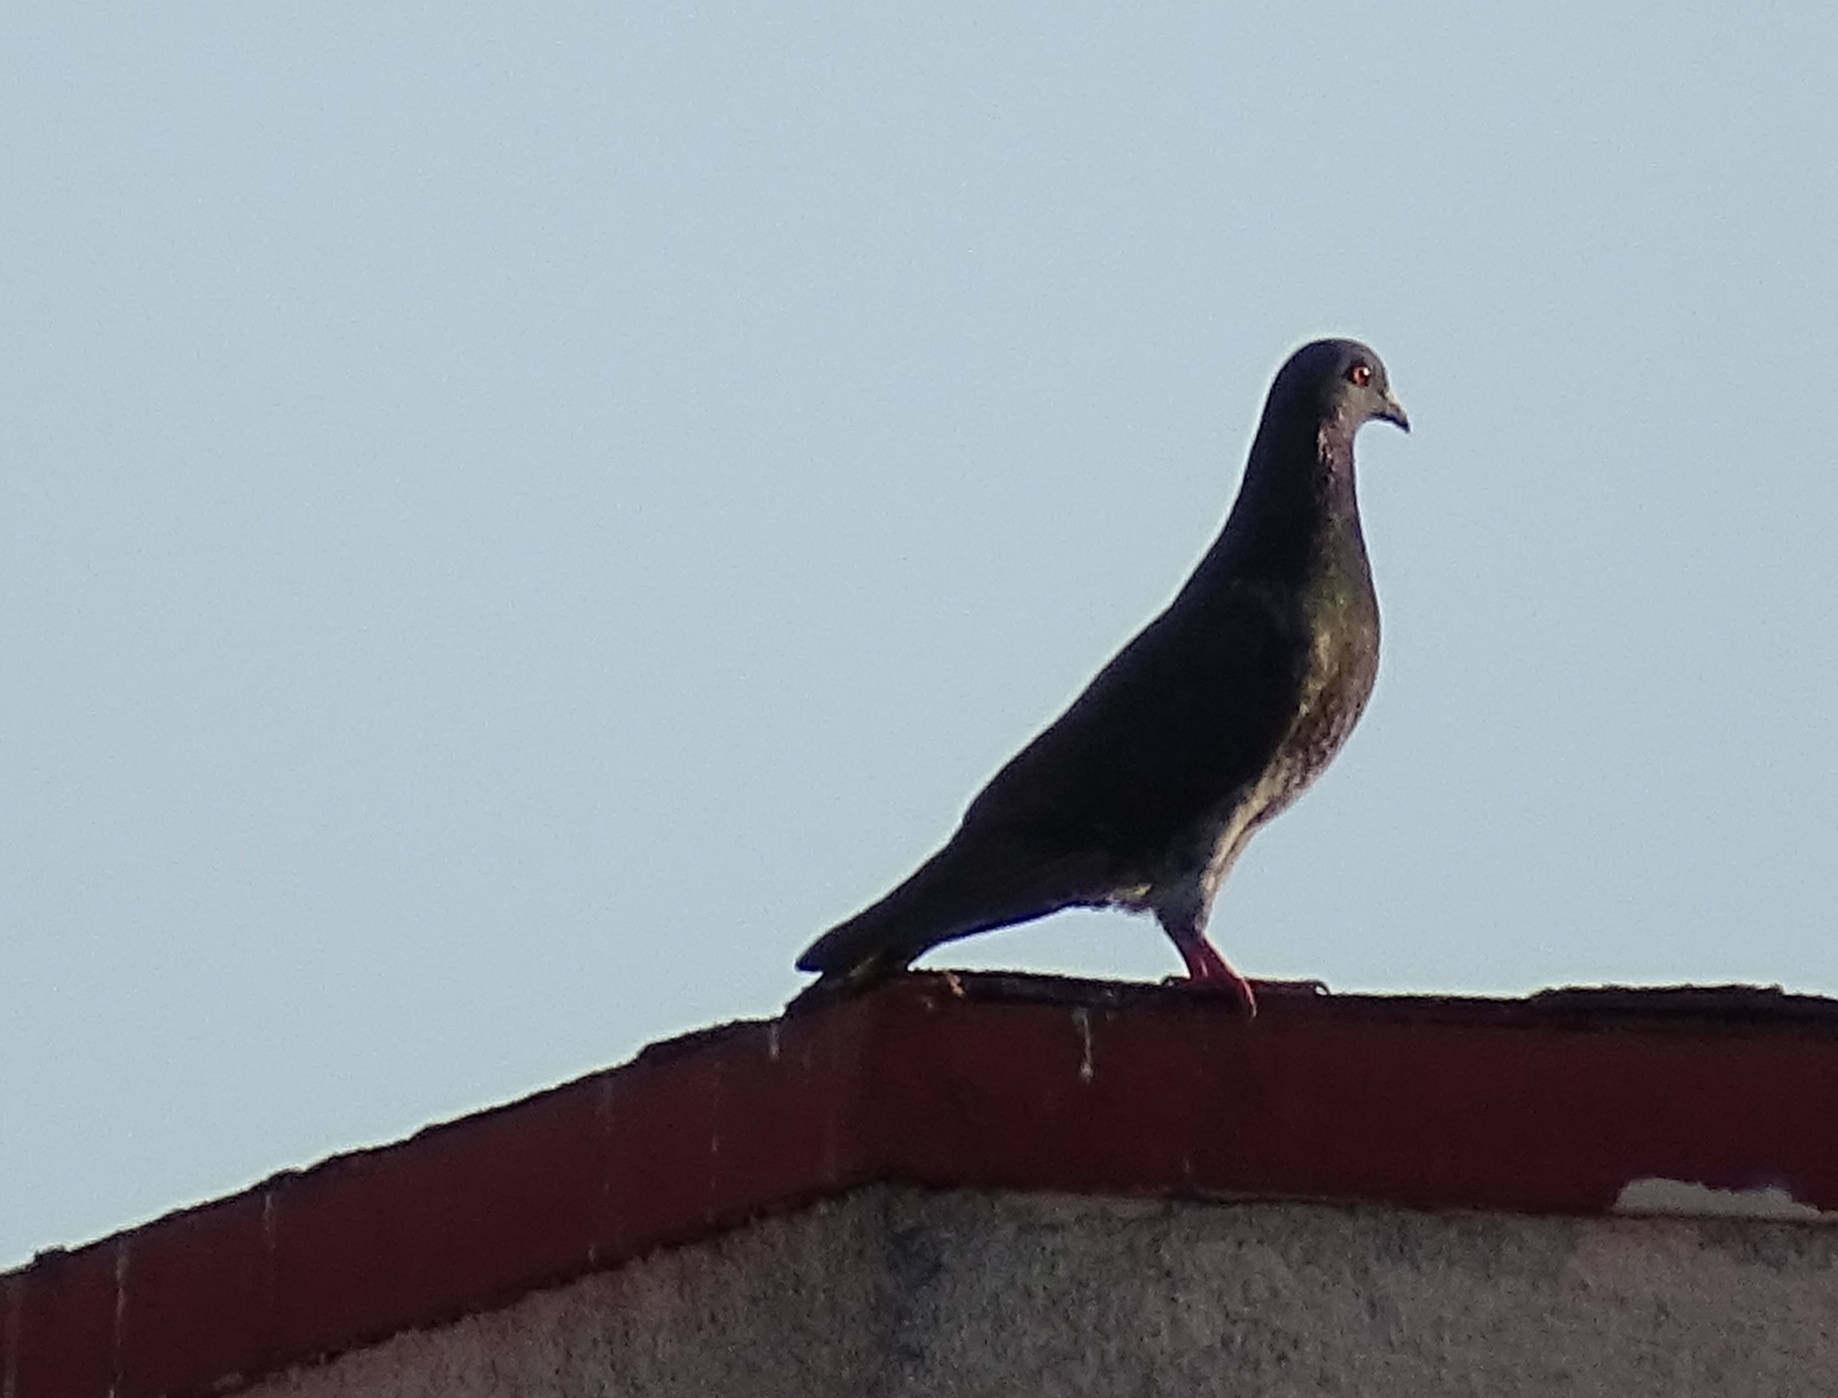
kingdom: Animalia
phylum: Chordata
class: Aves
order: Columbiformes
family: Columbidae
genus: Columba
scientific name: Columba livia
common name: Rock pigeon
